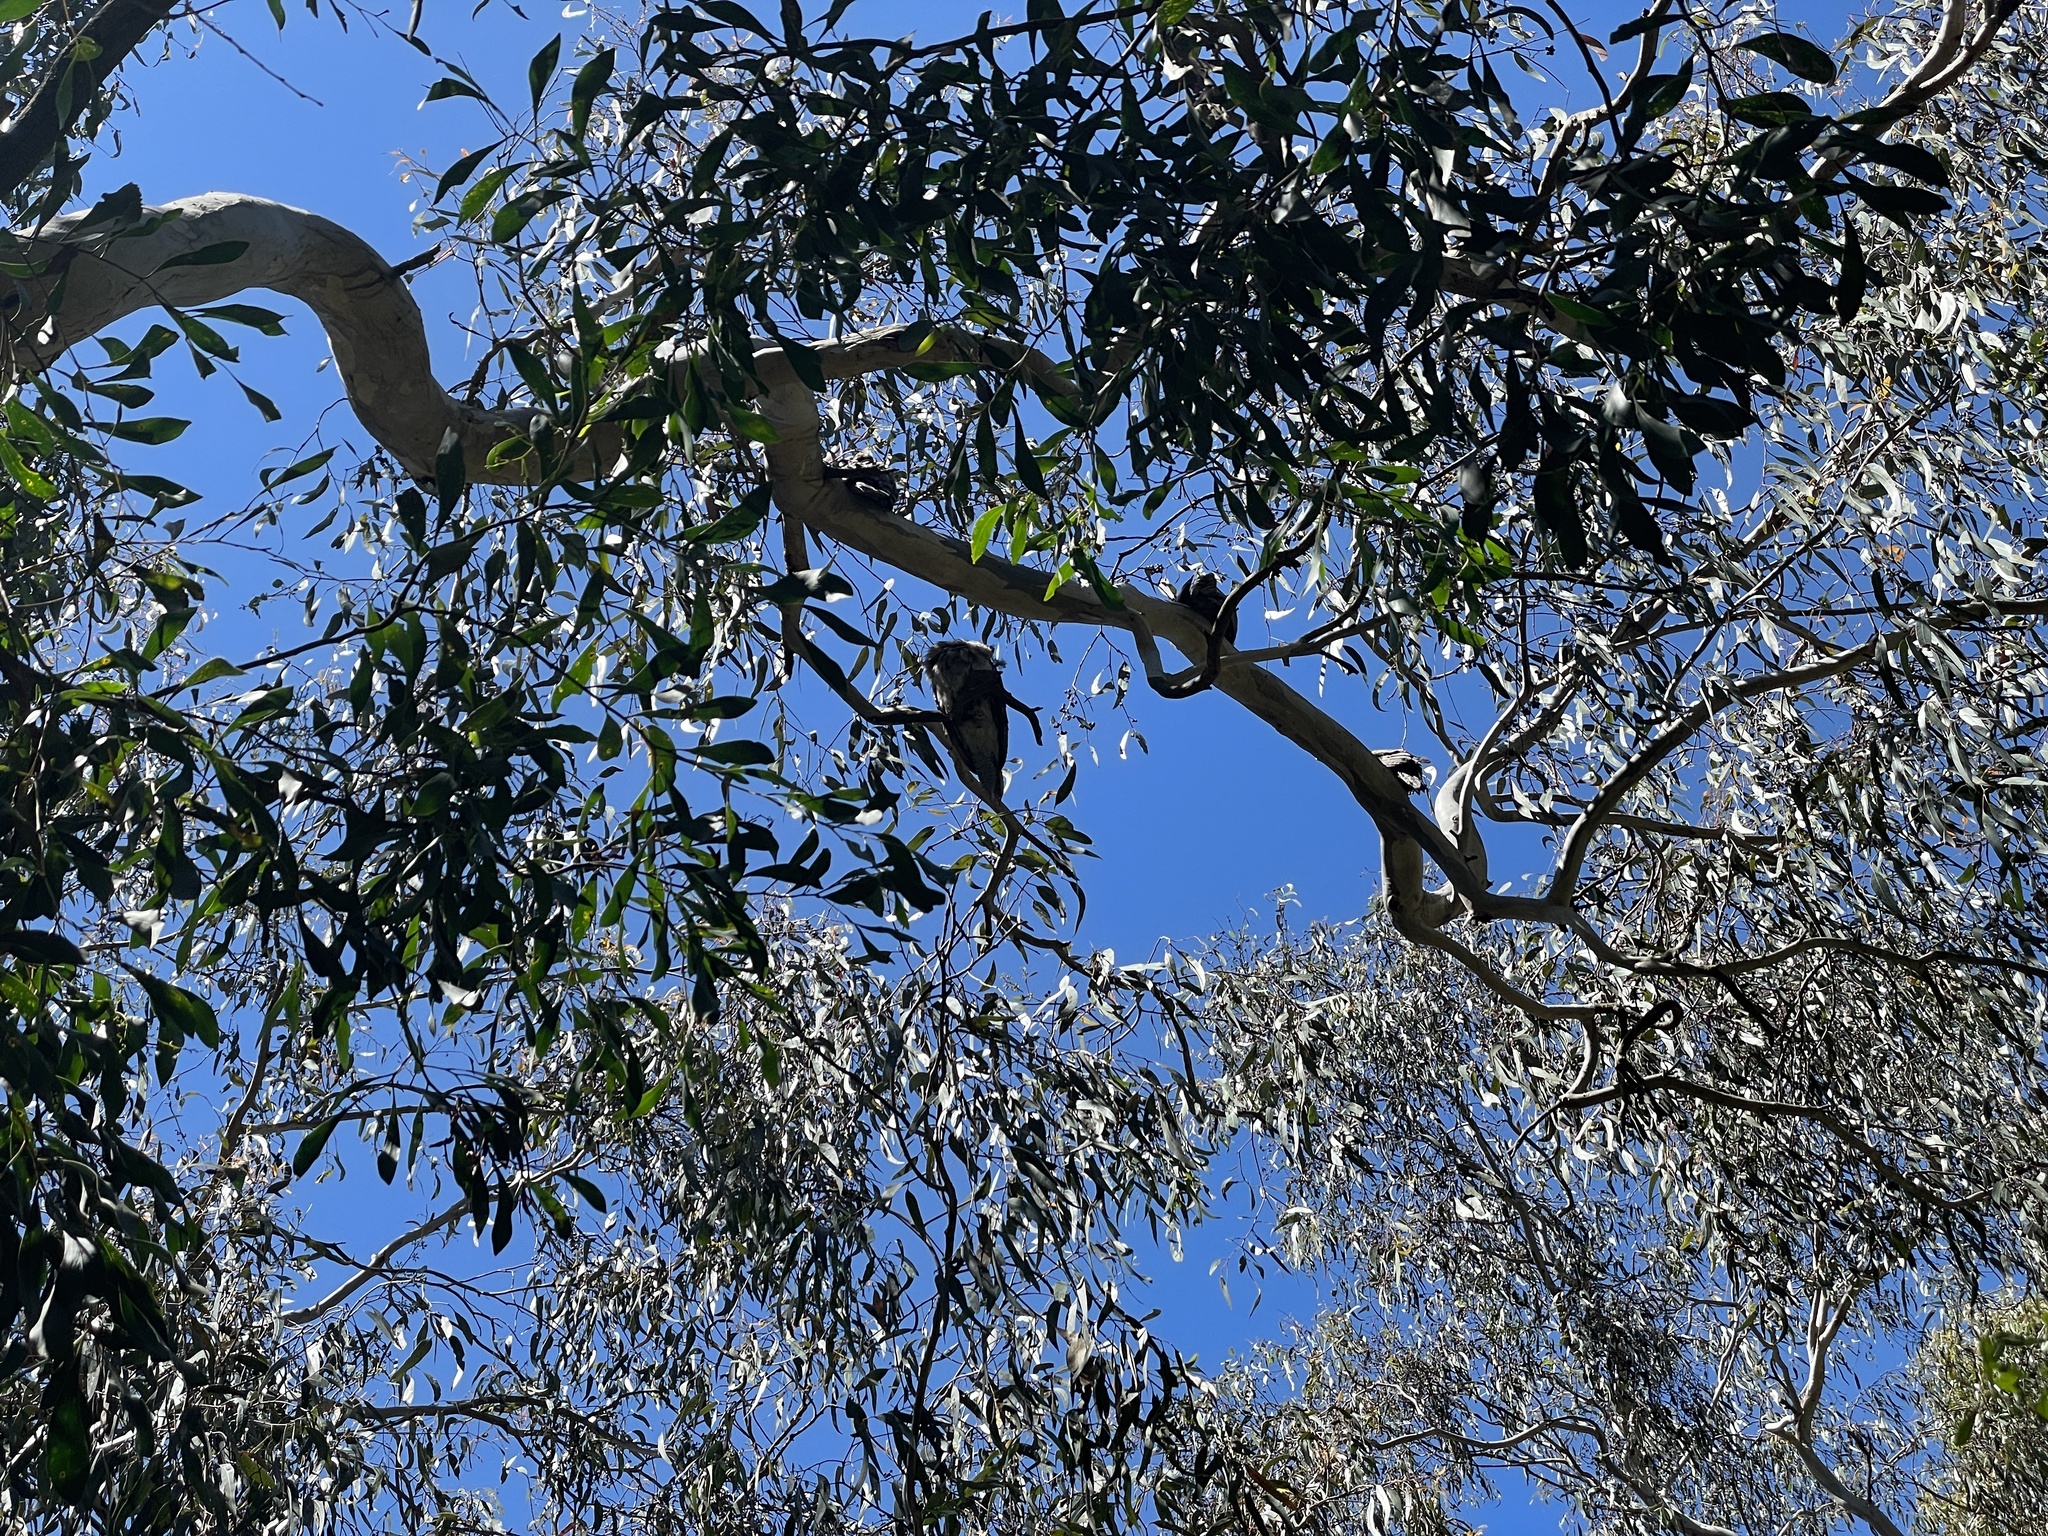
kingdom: Animalia
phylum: Chordata
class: Aves
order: Caprimulgiformes
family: Podargidae
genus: Podargus
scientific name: Podargus strigoides
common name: Tawny frogmouth
